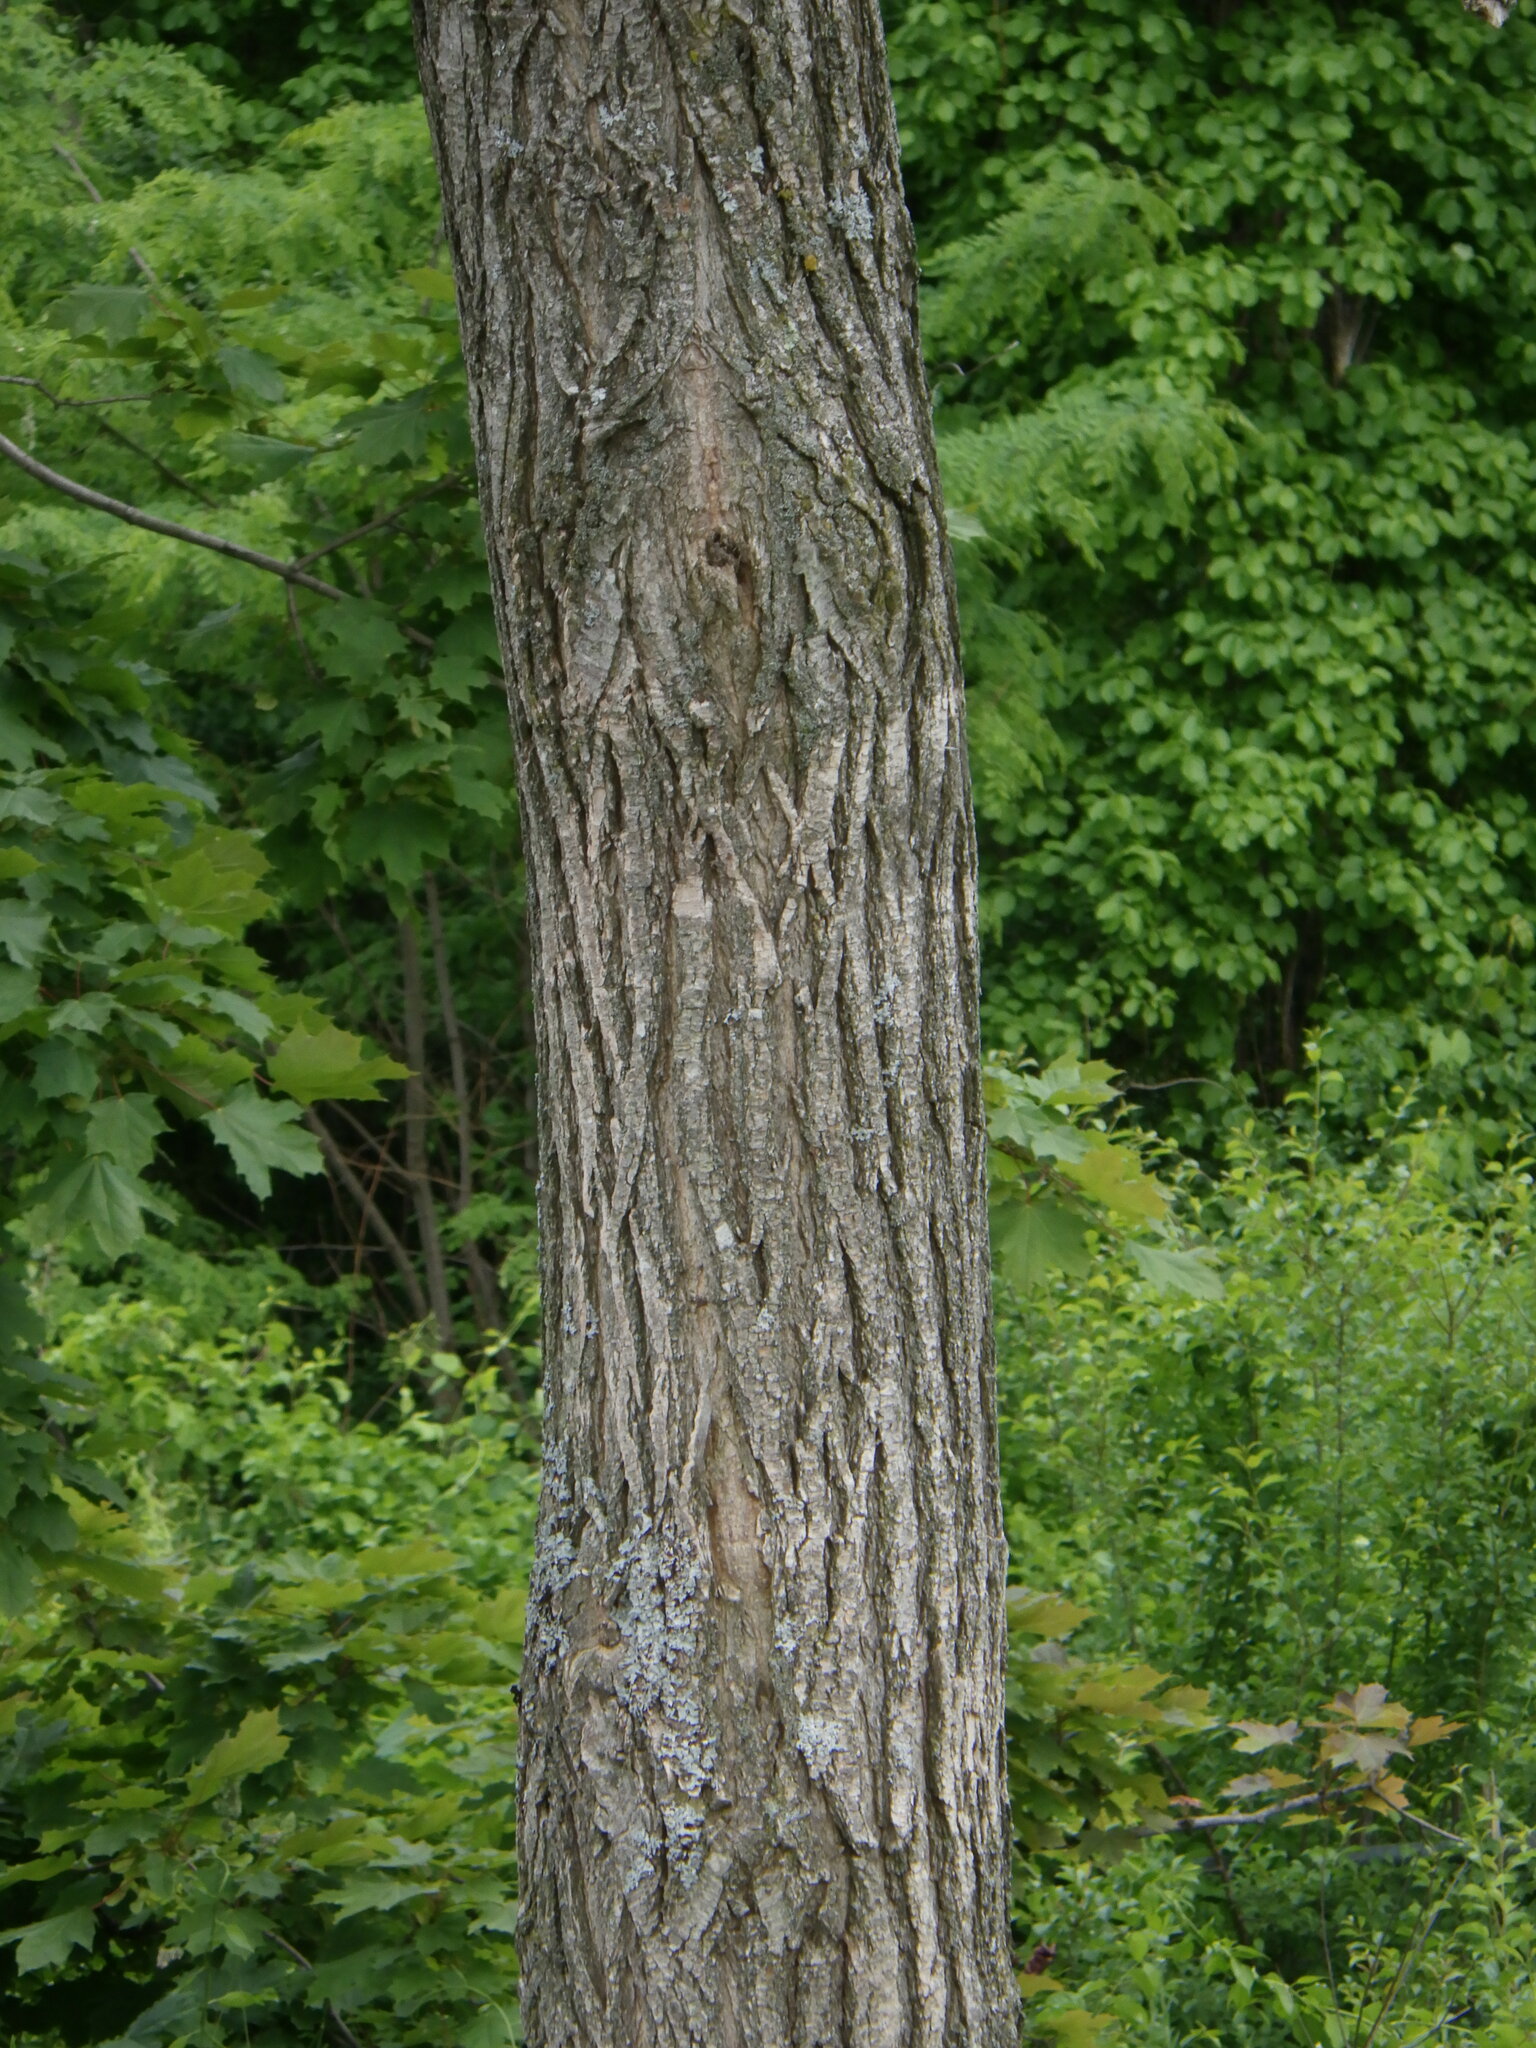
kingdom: Plantae
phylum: Tracheophyta
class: Magnoliopsida
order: Fabales
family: Fabaceae
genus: Robinia
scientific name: Robinia pseudoacacia
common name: Black locust
